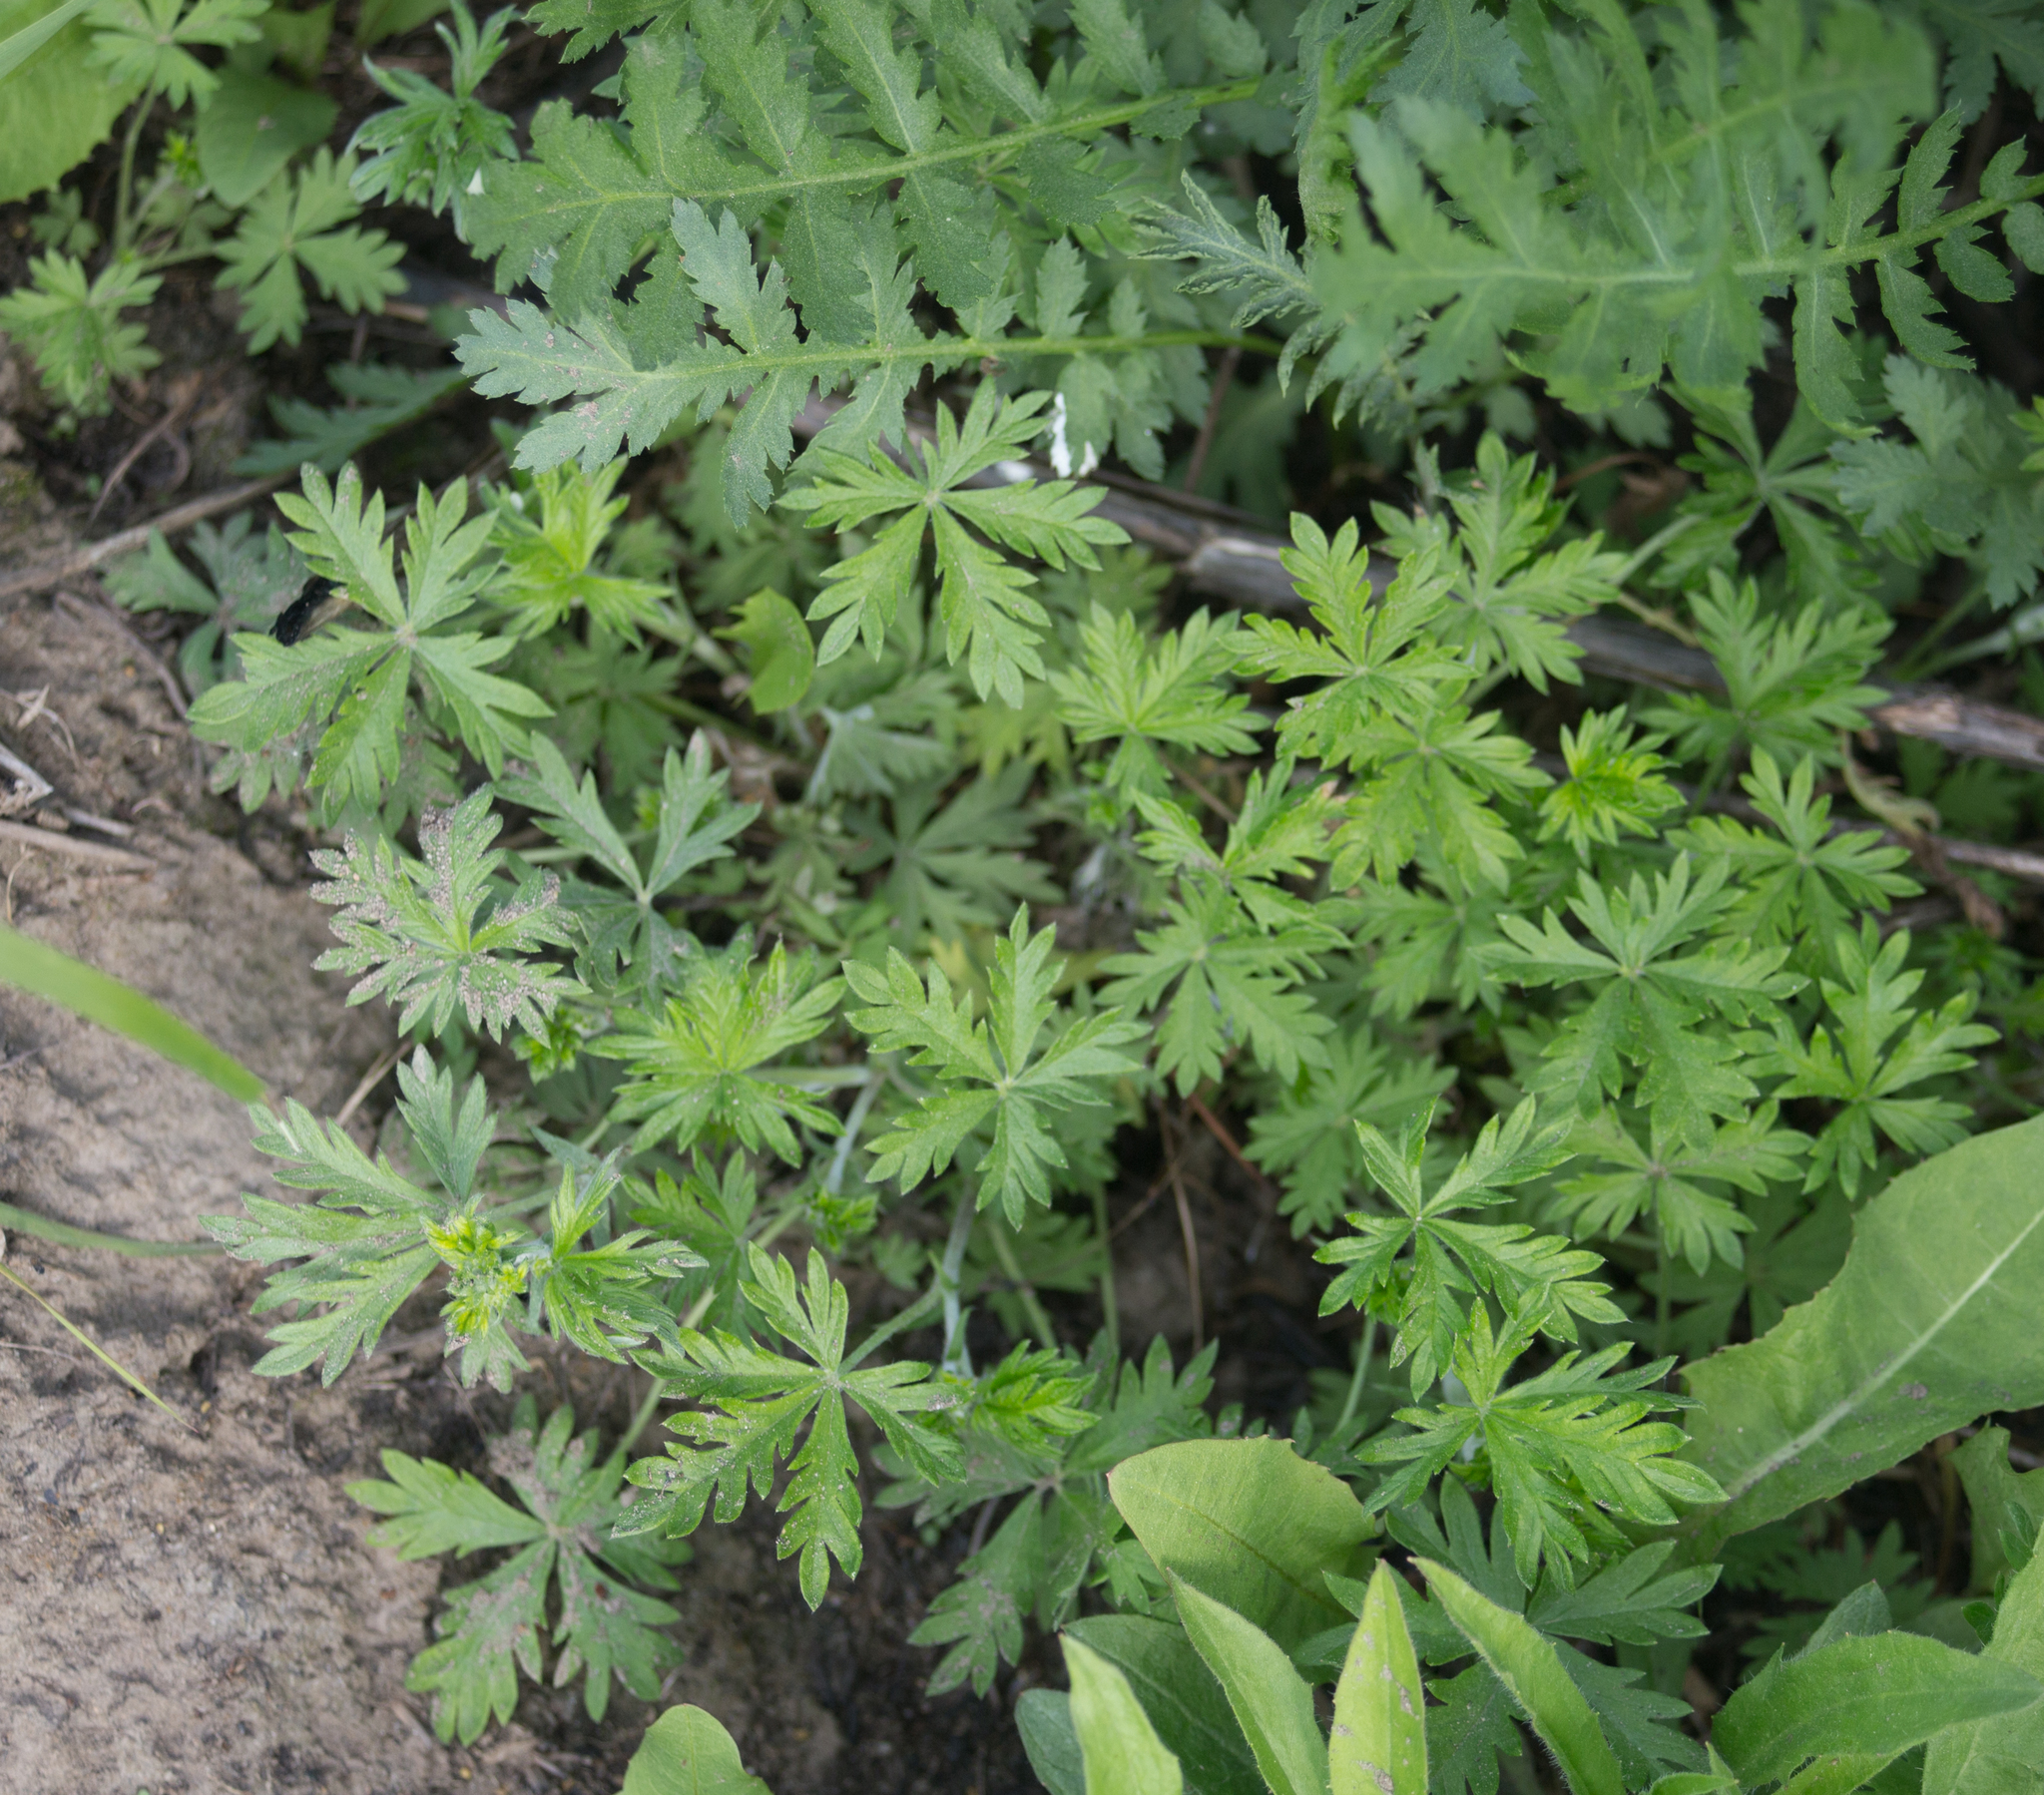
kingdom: Plantae
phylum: Tracheophyta
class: Magnoliopsida
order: Rosales
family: Rosaceae
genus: Potentilla
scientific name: Potentilla argentea
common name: Hoary cinquefoil
